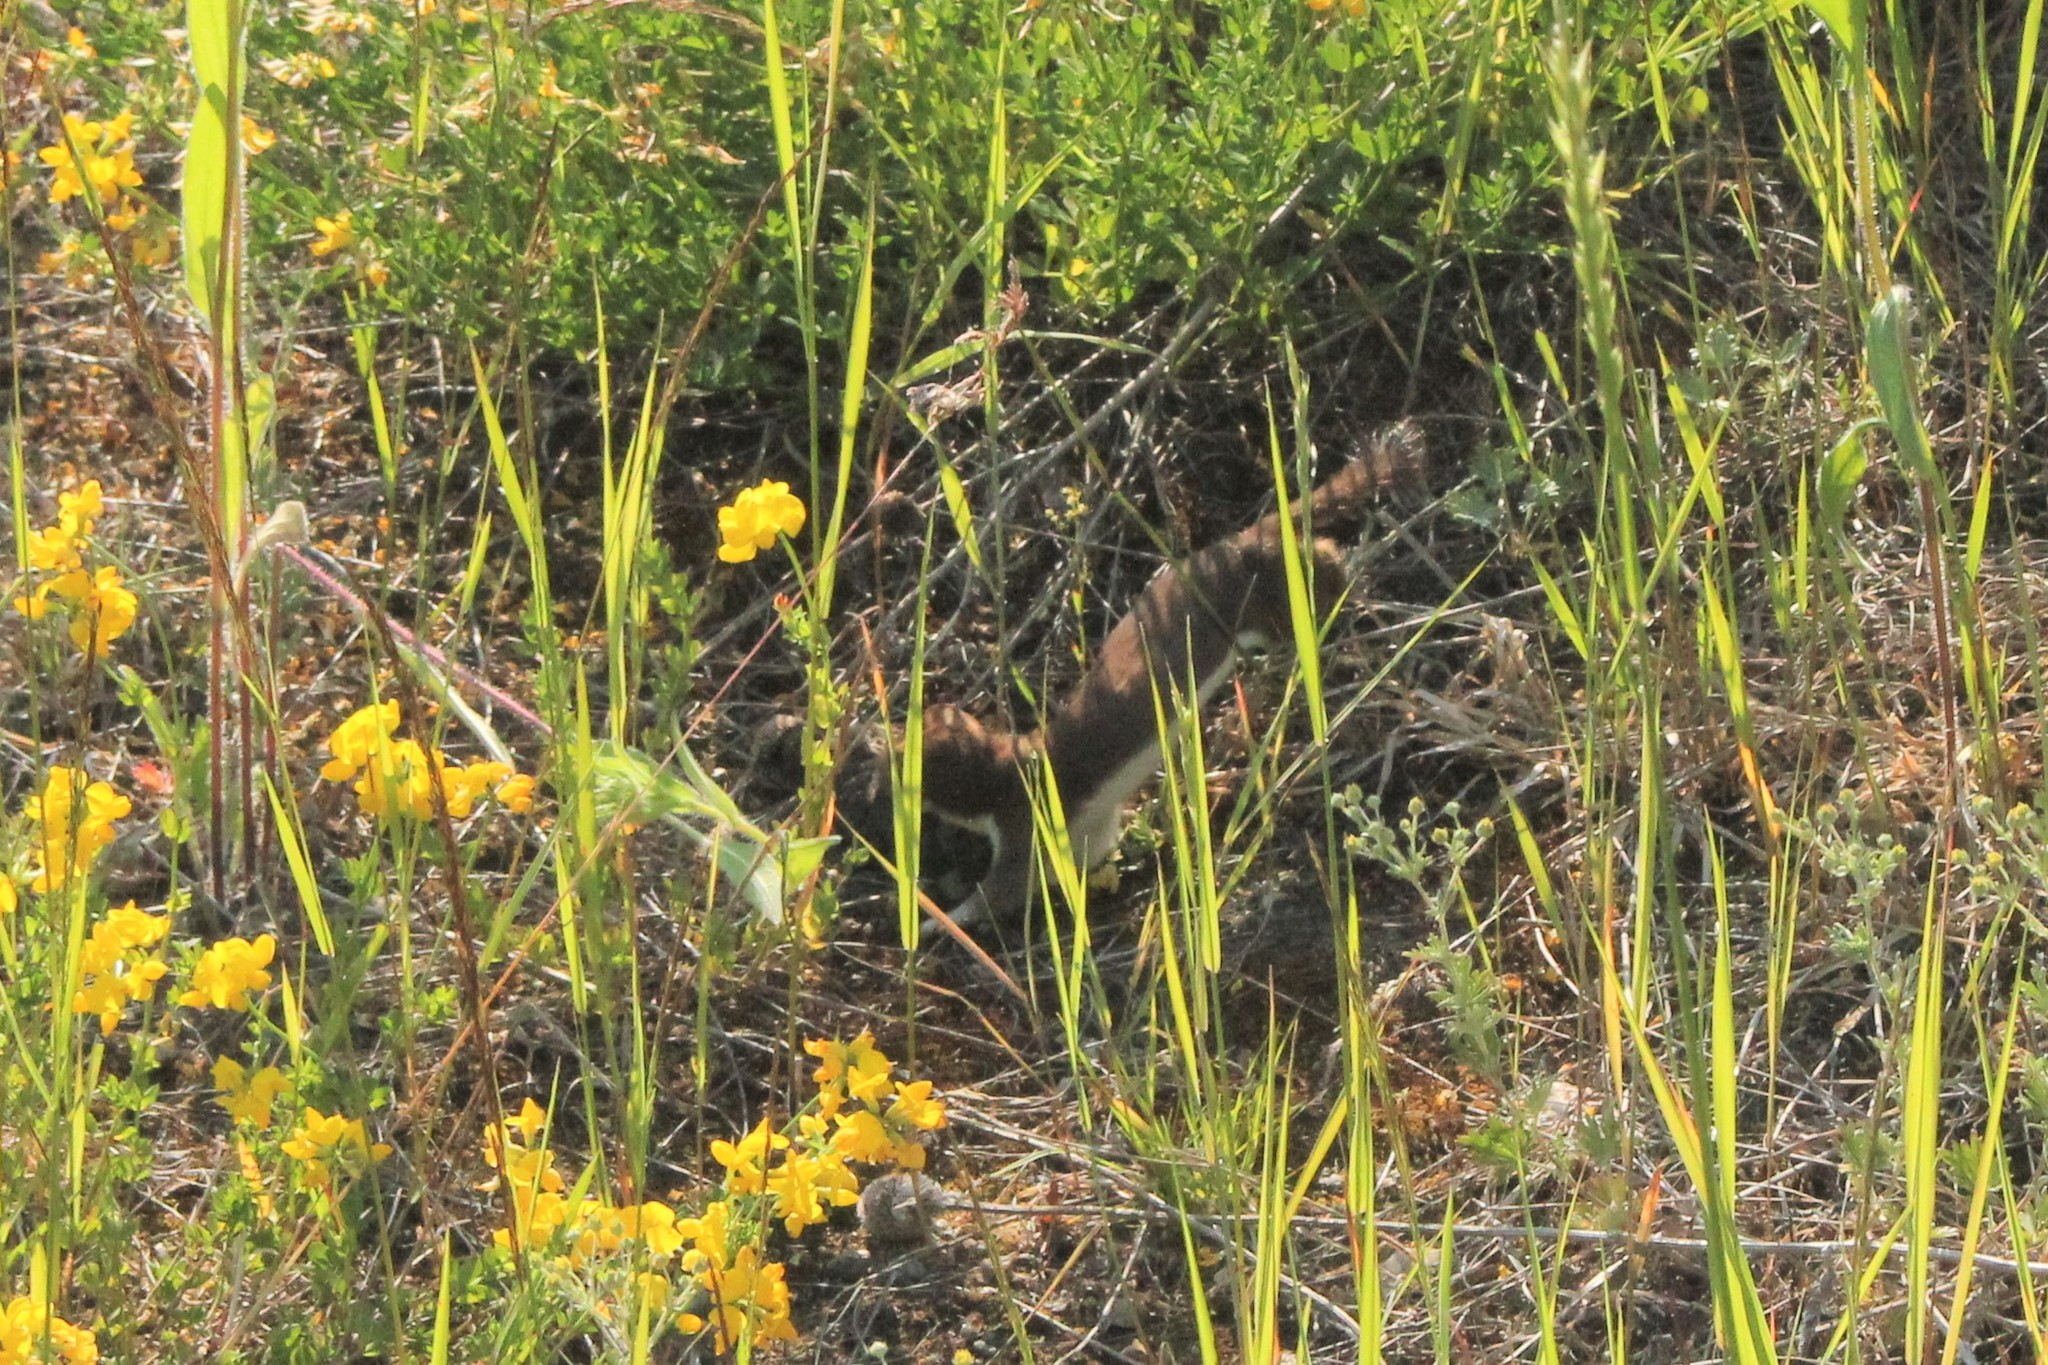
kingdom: Animalia
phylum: Chordata
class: Mammalia
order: Carnivora
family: Mustelidae
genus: Mustela
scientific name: Mustela erminea
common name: Stoat
